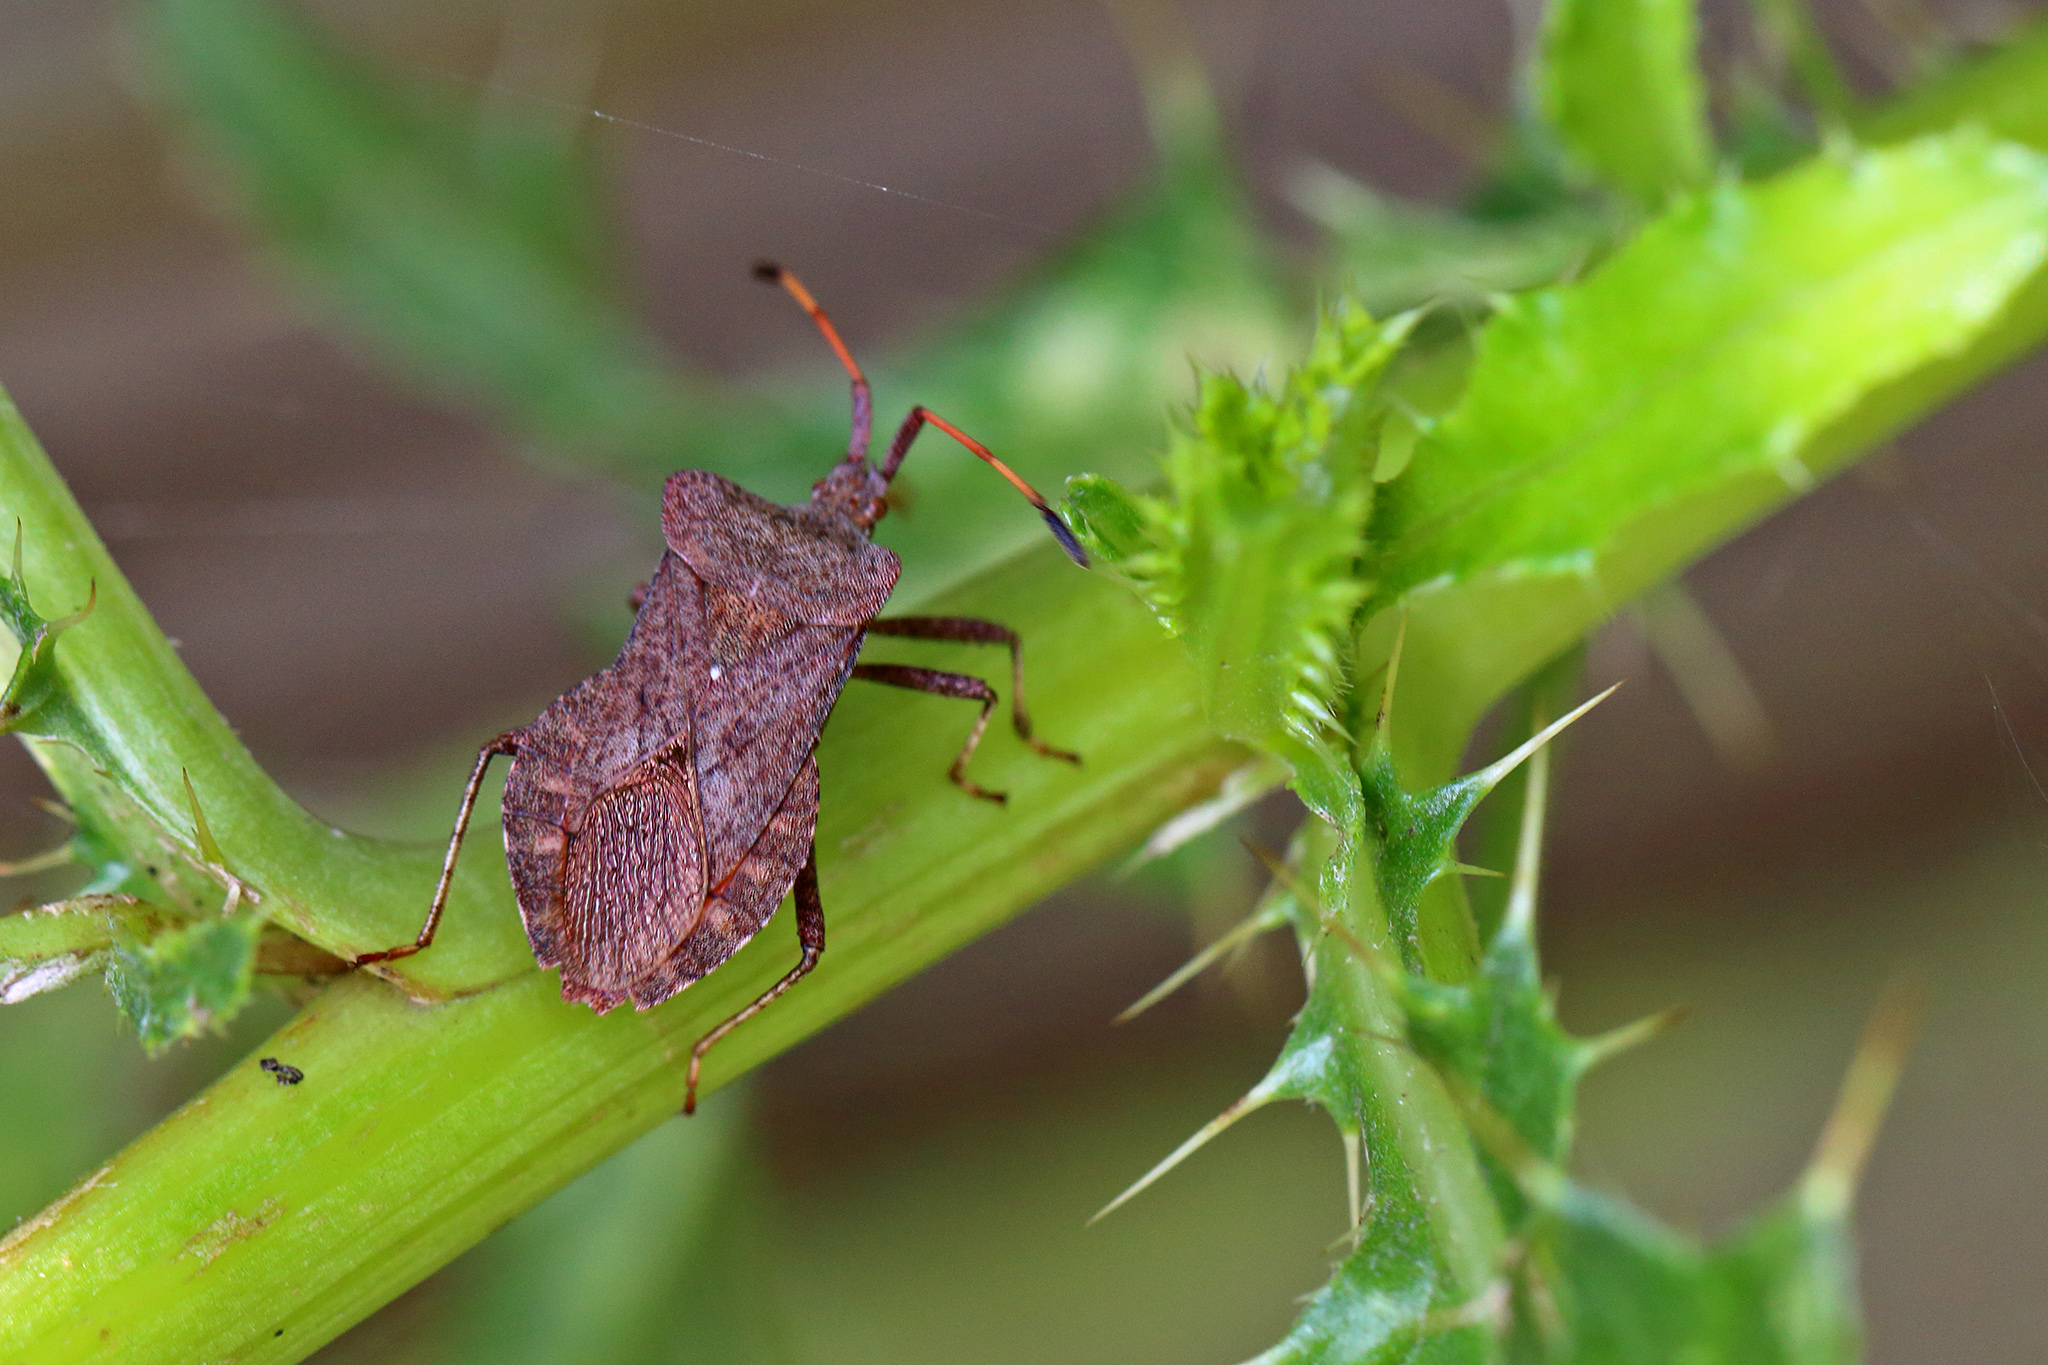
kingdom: Animalia
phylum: Arthropoda
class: Insecta
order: Hemiptera
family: Coreidae
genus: Coreus
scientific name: Coreus marginatus
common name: Dock bug
